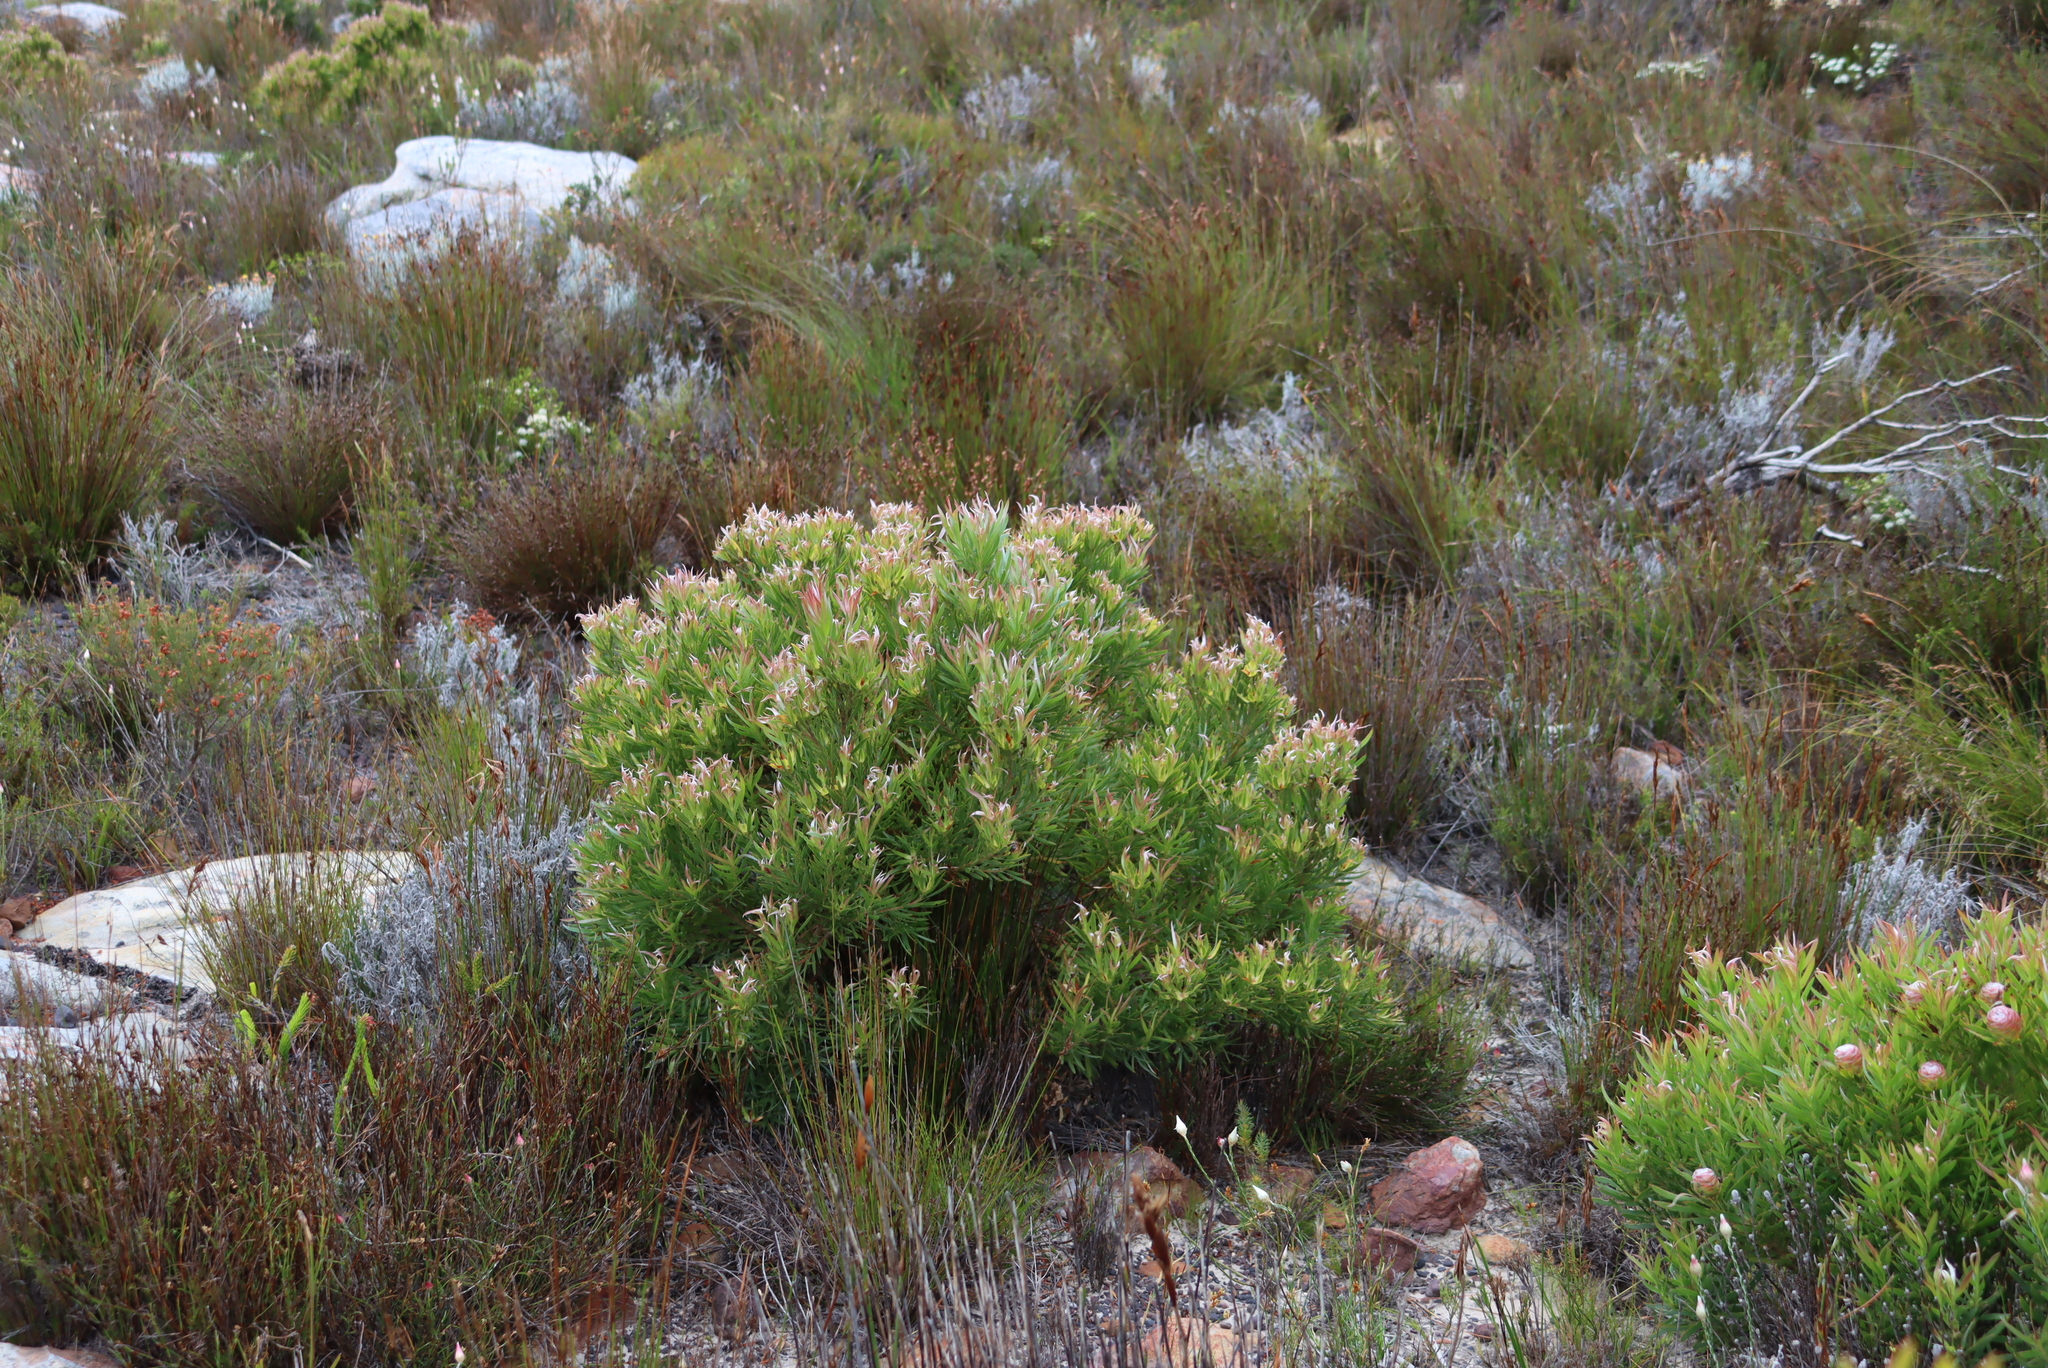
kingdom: Plantae
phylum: Tracheophyta
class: Magnoliopsida
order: Proteales
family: Proteaceae
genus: Leucadendron
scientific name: Leucadendron xanthoconus
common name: Sickle-leaf conebush
